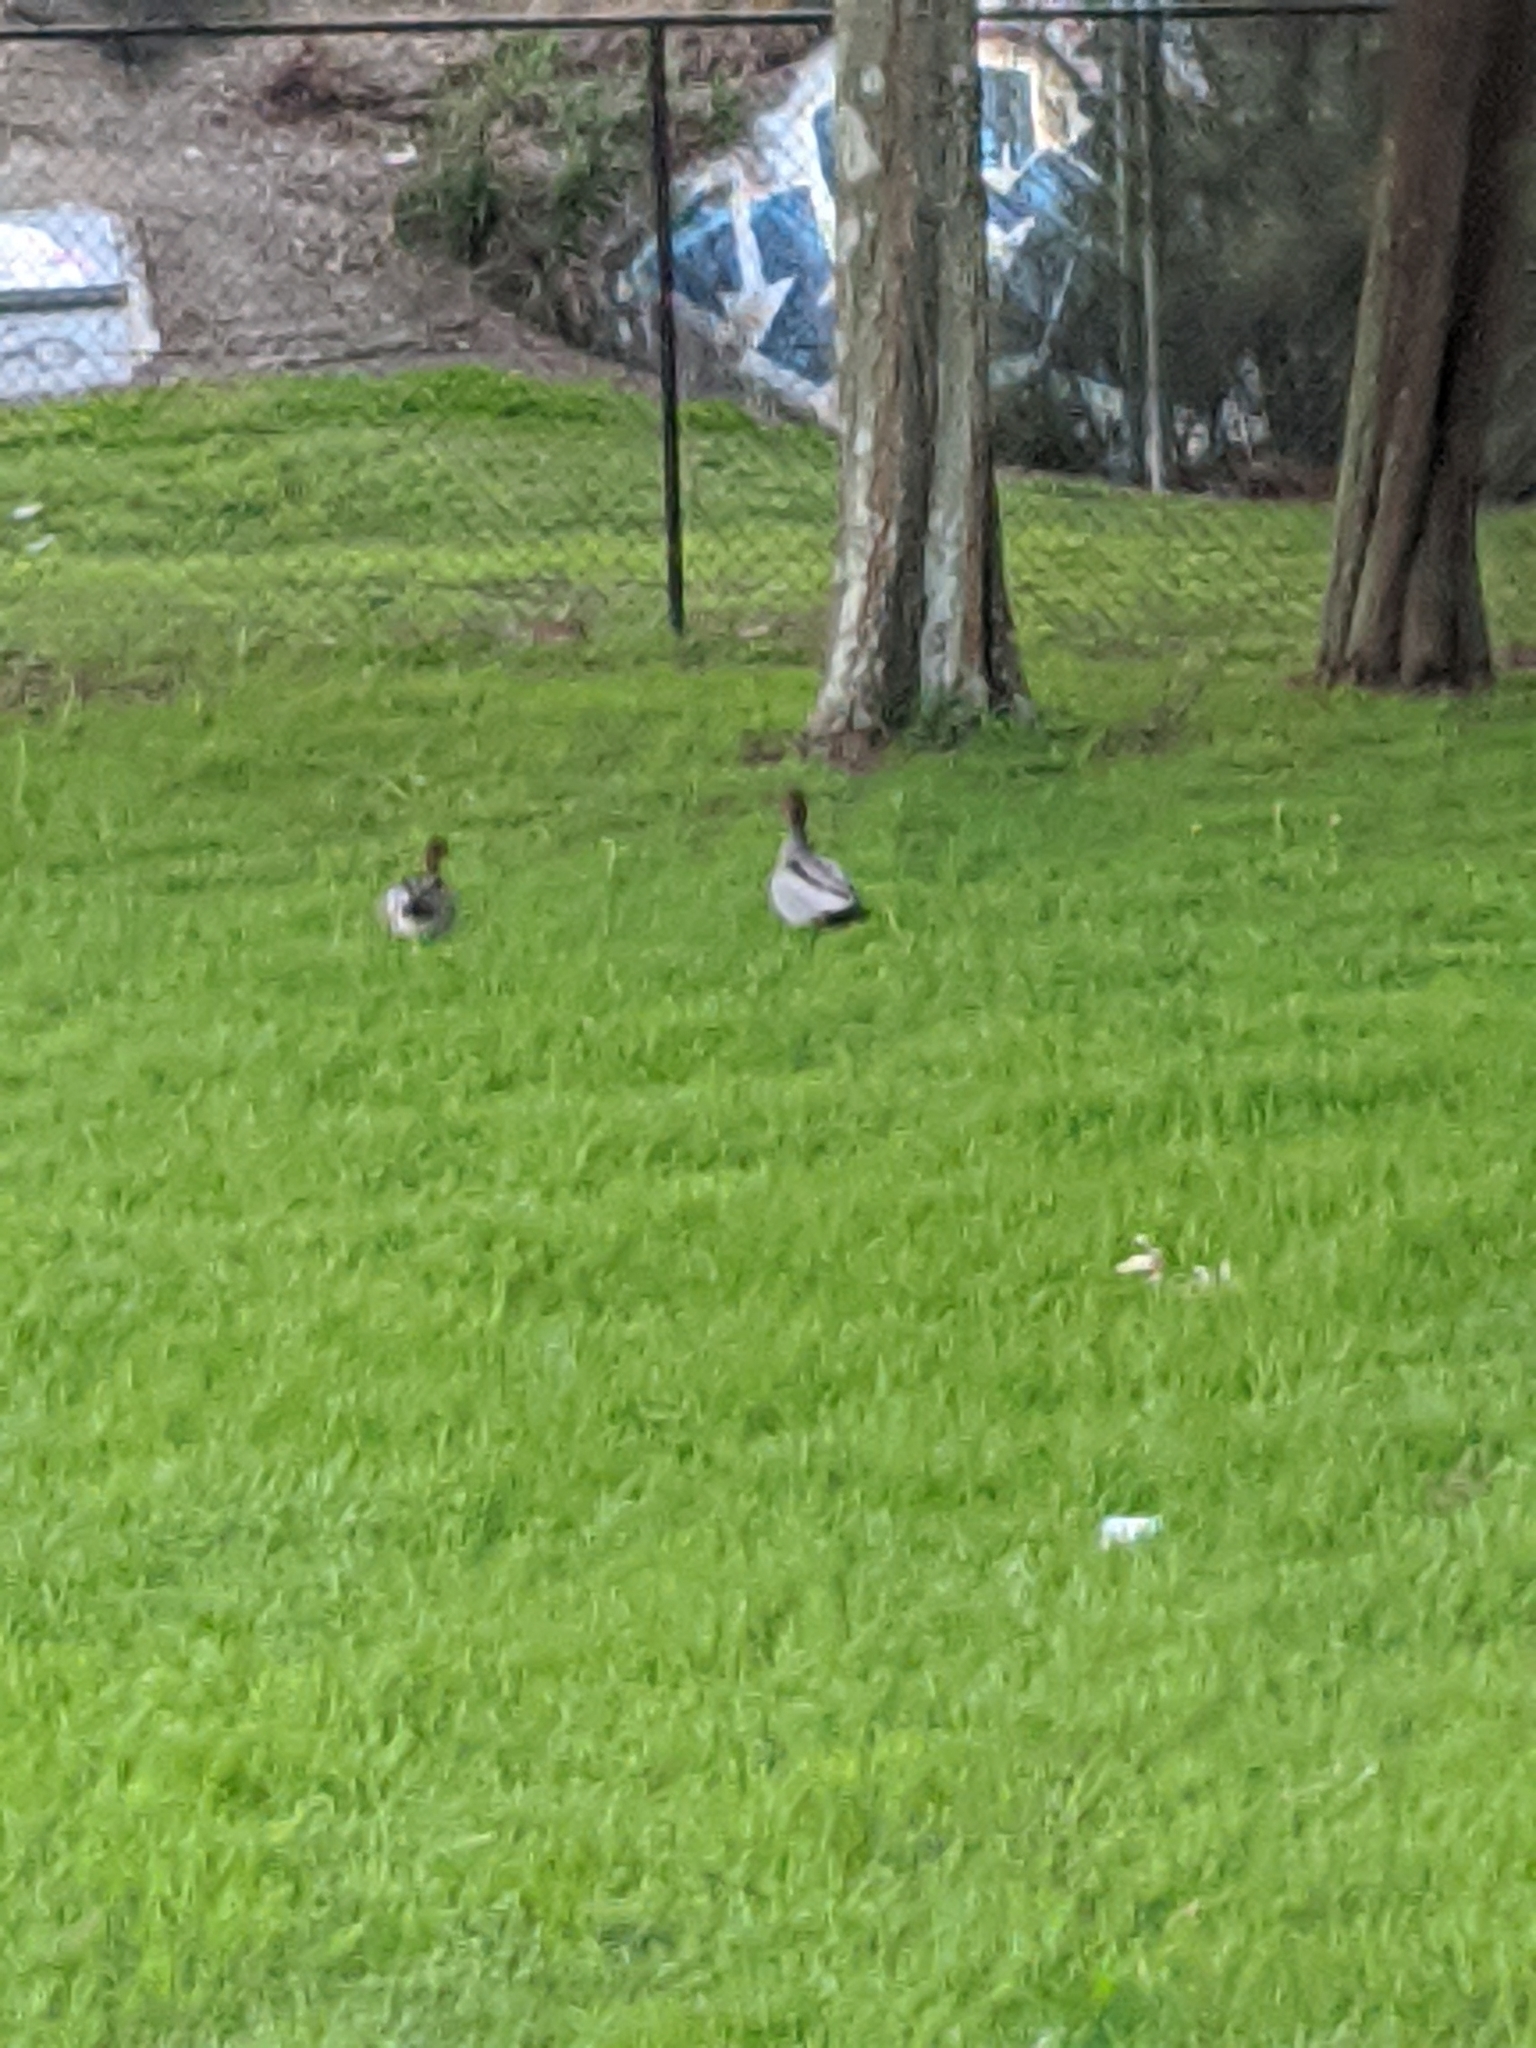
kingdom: Animalia
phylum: Chordata
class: Aves
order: Anseriformes
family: Anatidae
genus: Chenonetta
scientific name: Chenonetta jubata
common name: Maned duck
